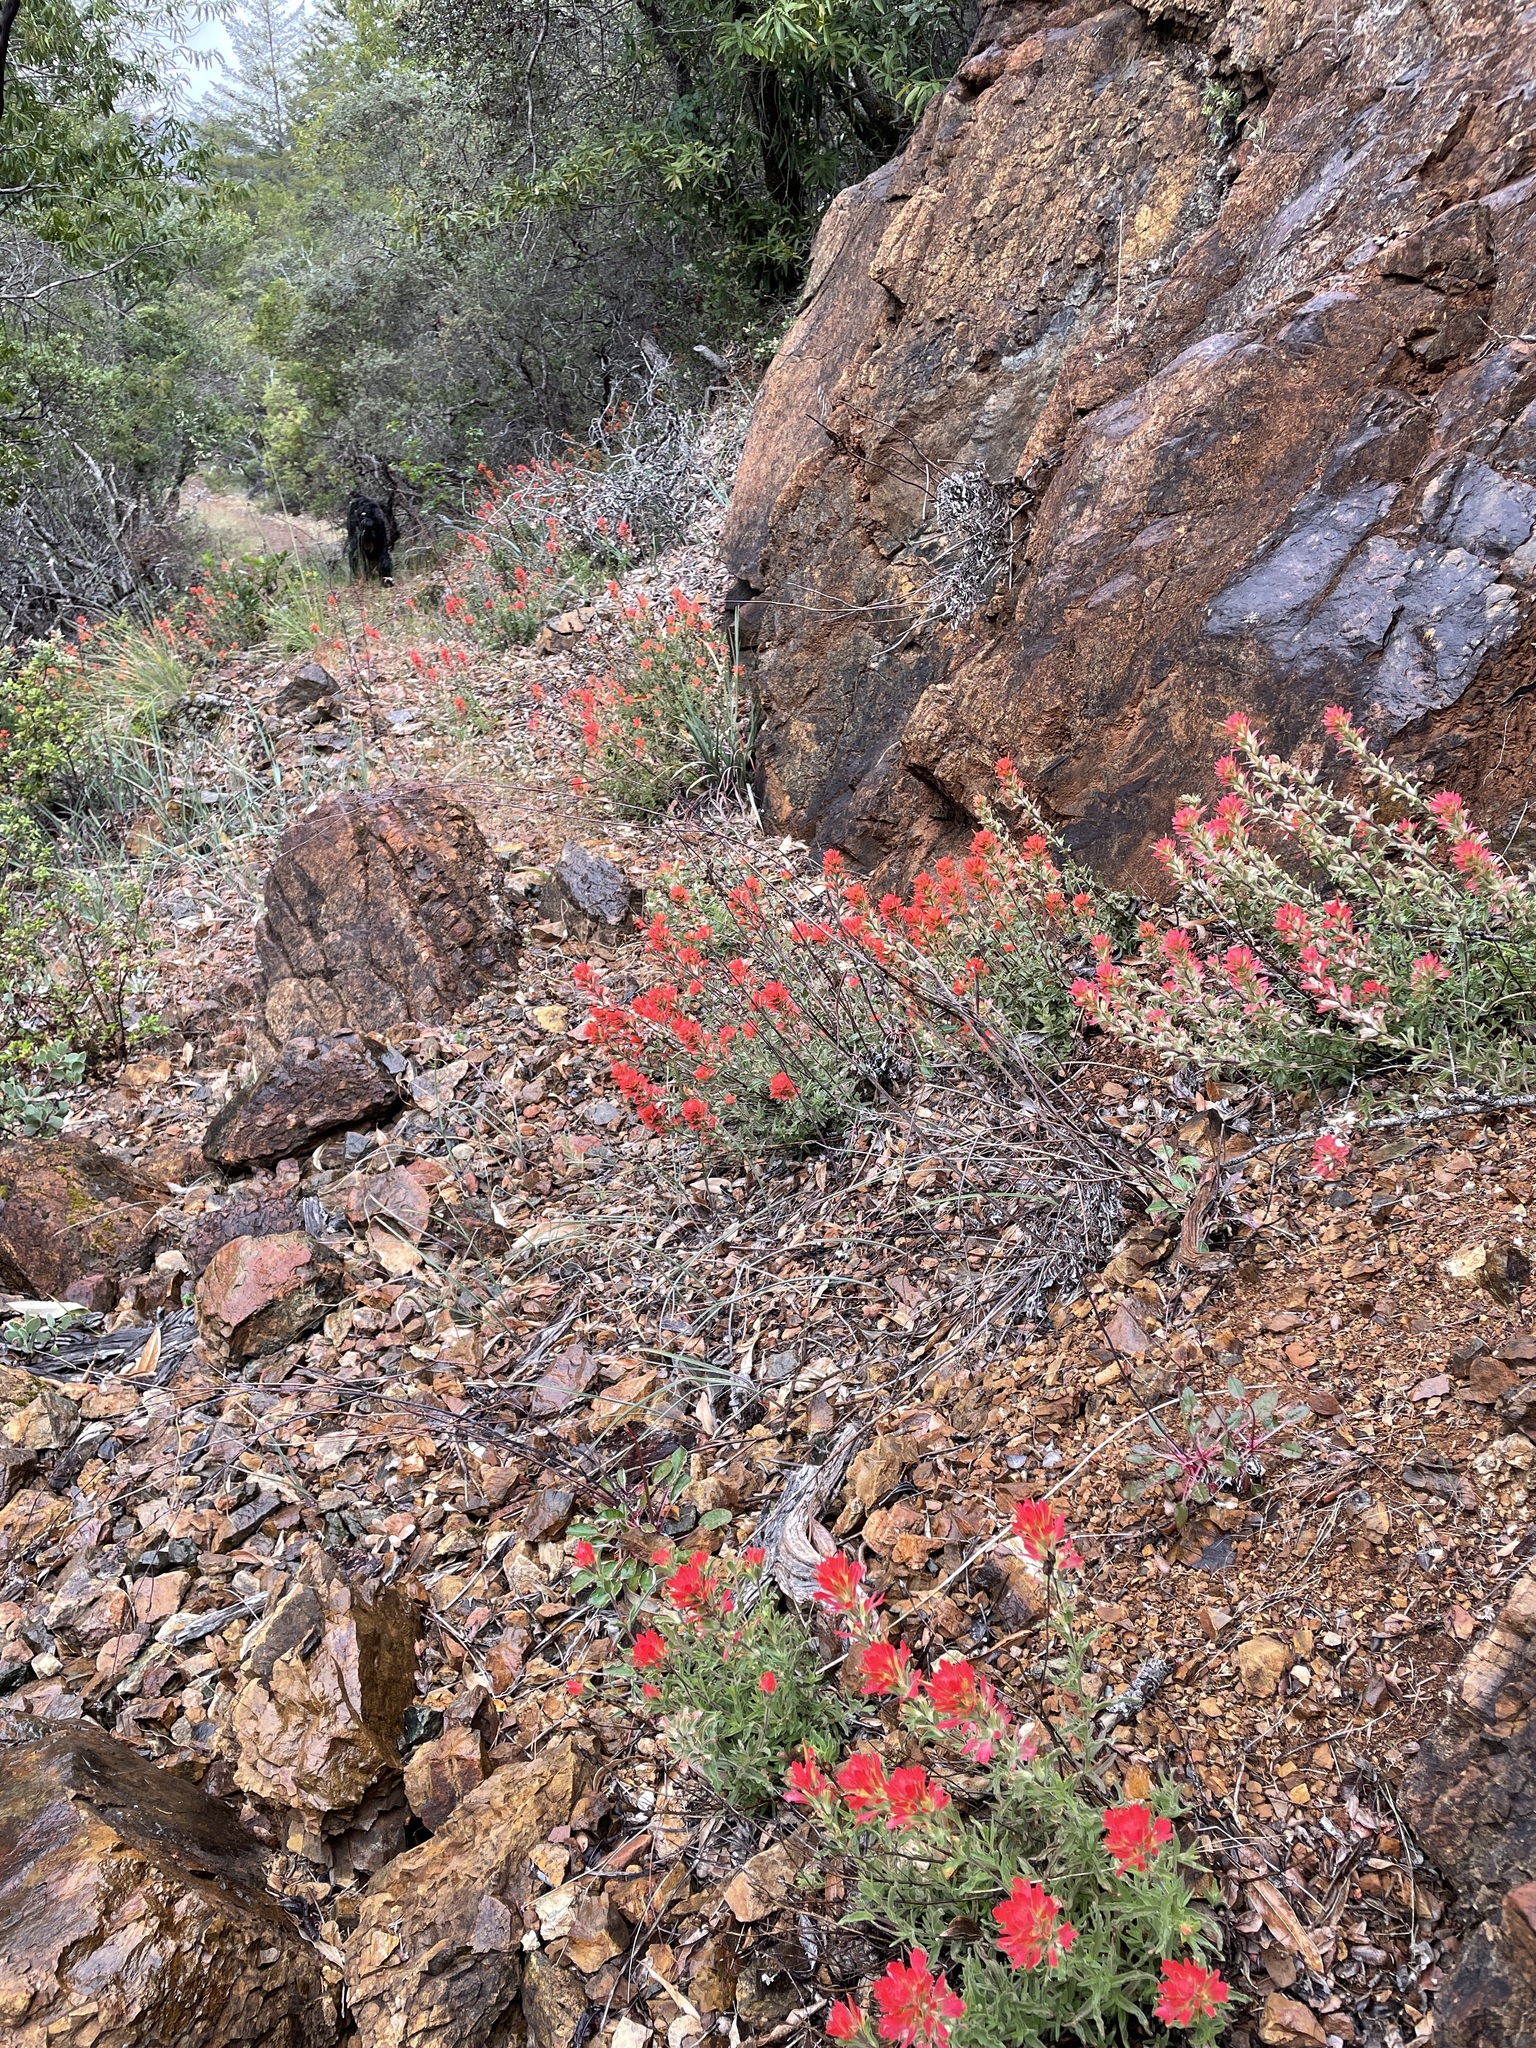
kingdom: Plantae
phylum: Tracheophyta
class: Magnoliopsida
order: Lamiales
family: Orobanchaceae
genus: Castilleja
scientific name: Castilleja martini
